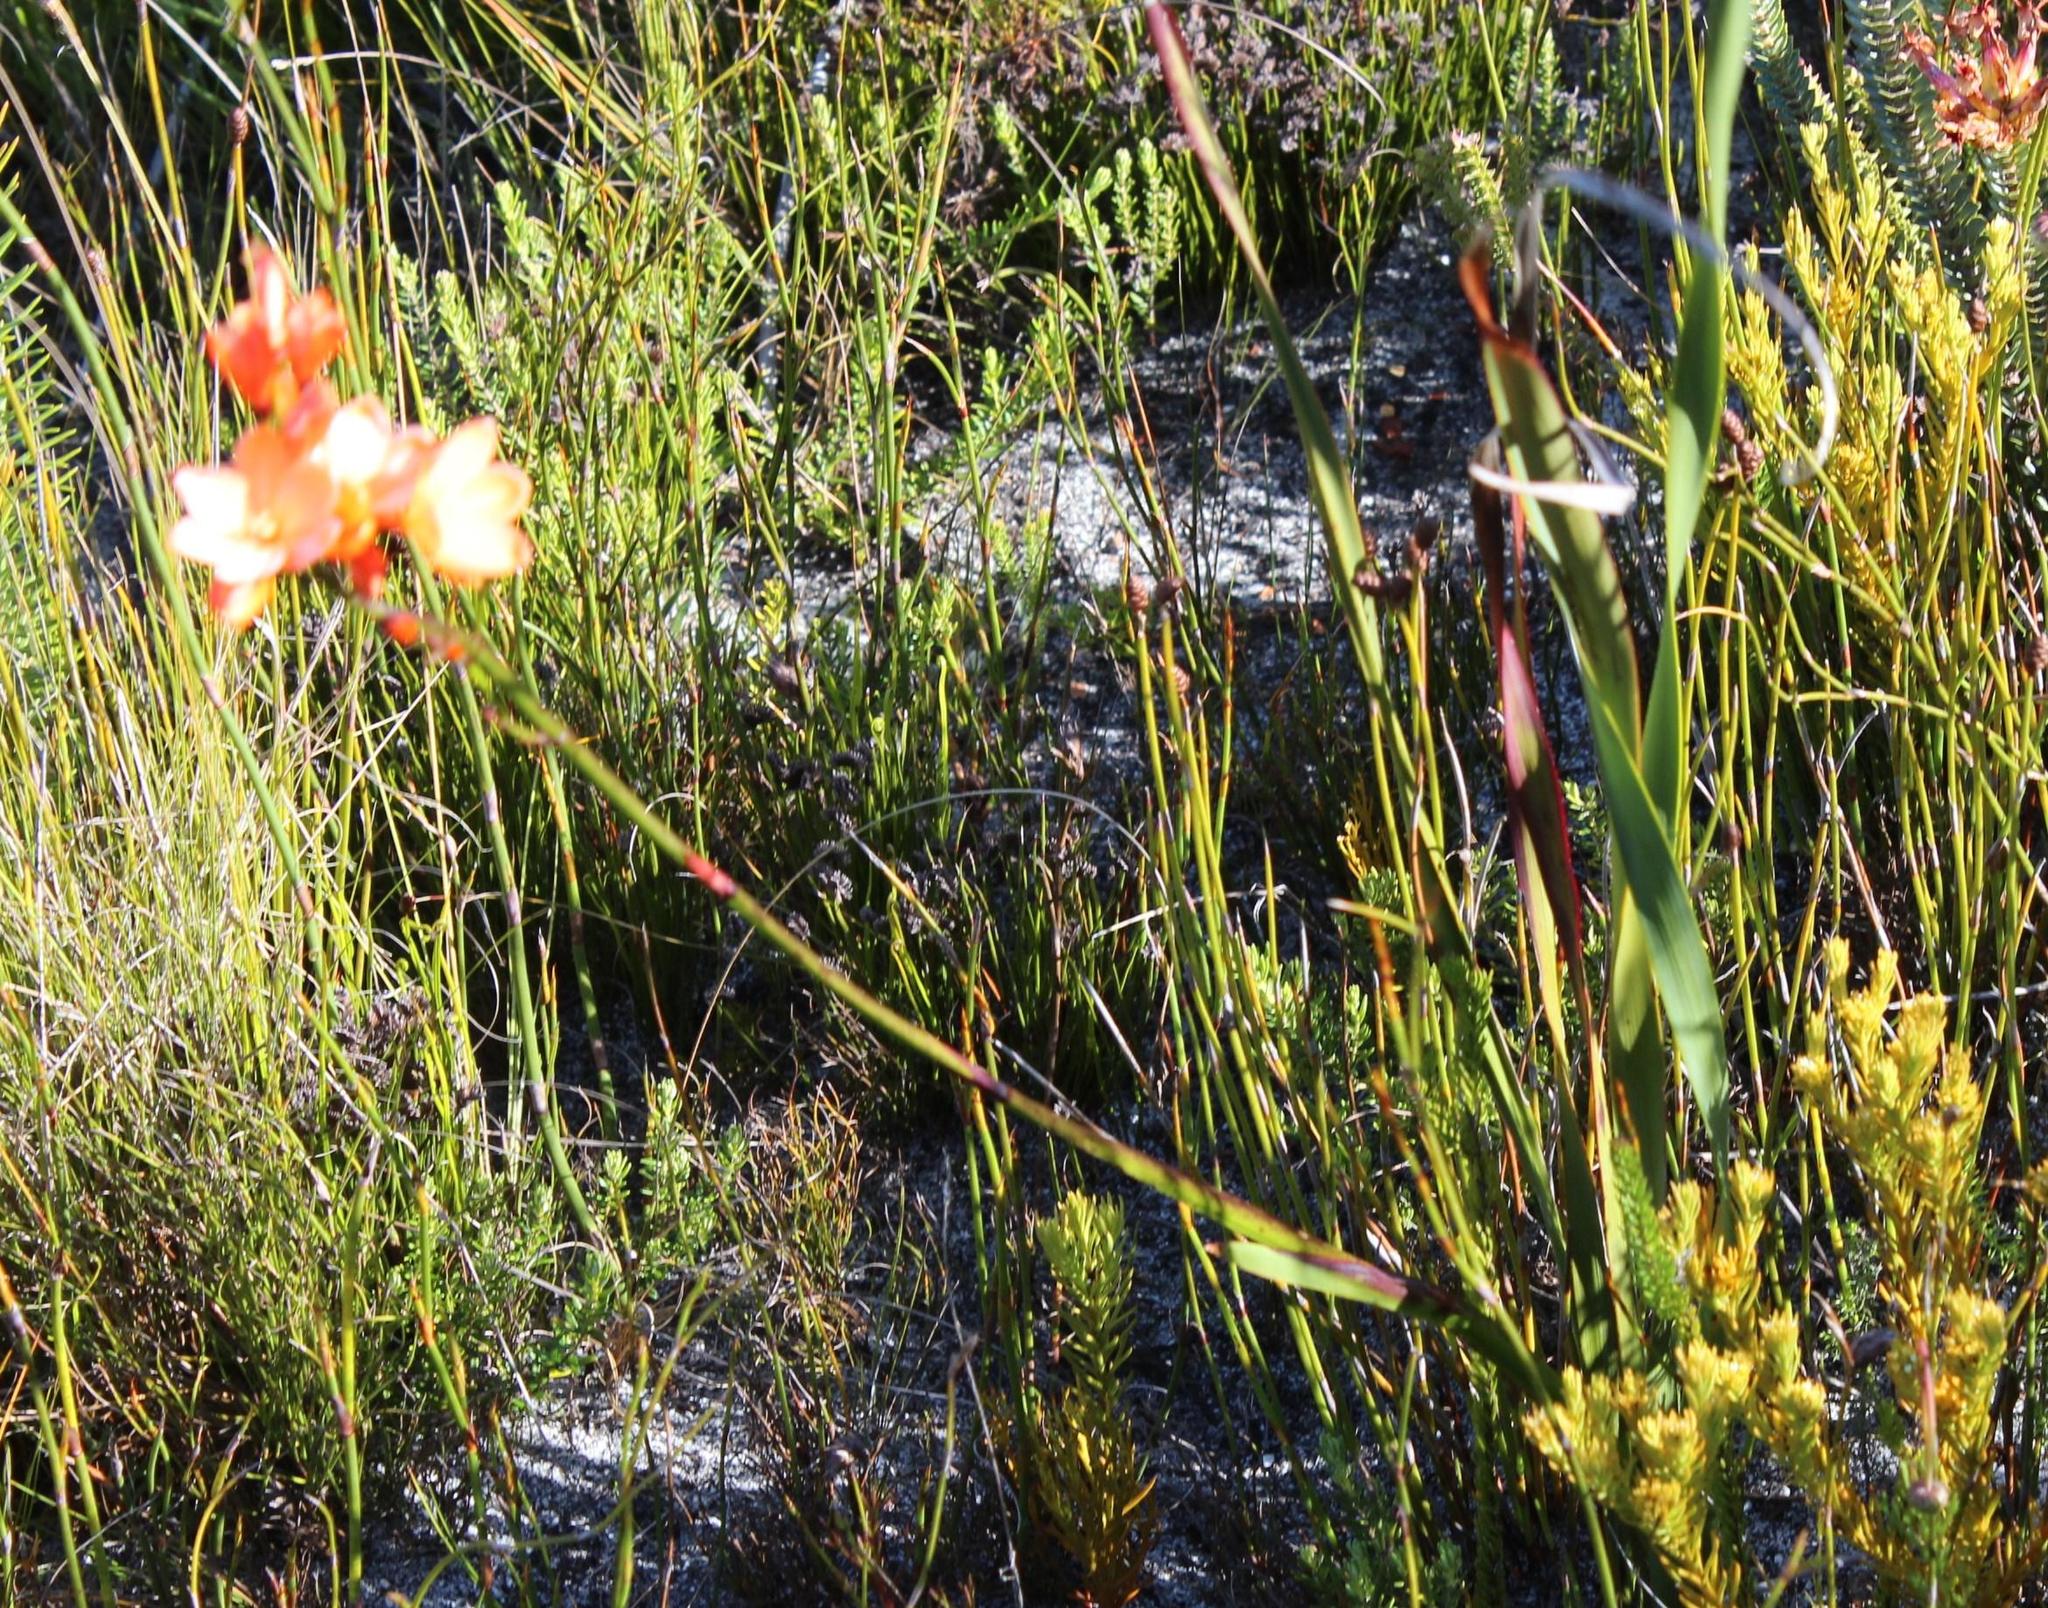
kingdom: Plantae
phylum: Tracheophyta
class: Liliopsida
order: Asparagales
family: Iridaceae
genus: Pillansia
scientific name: Pillansia templemannii
